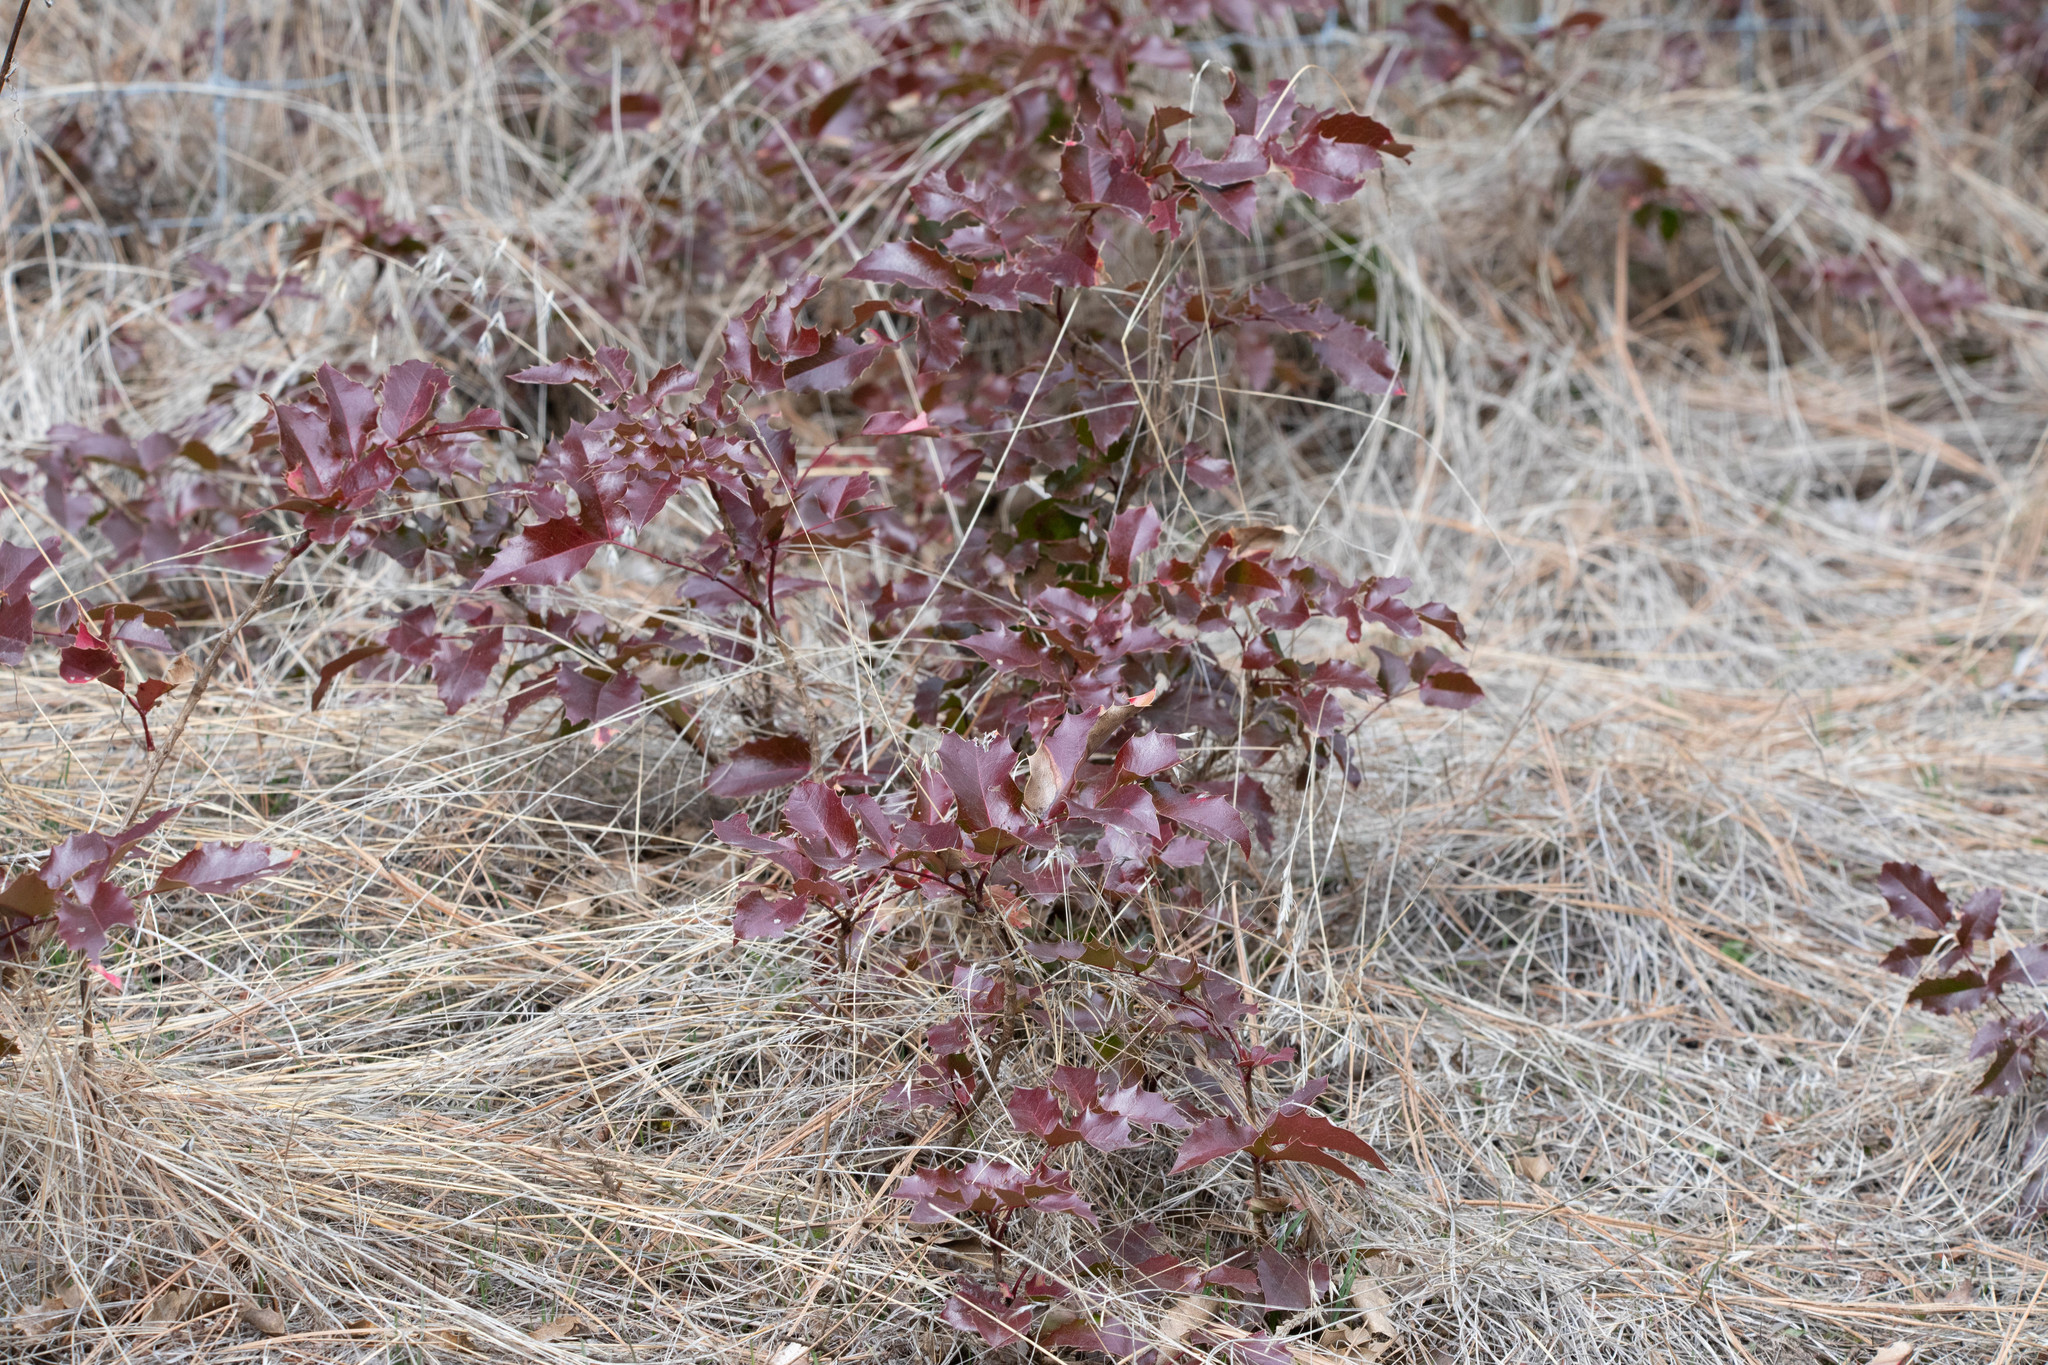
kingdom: Plantae
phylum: Tracheophyta
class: Magnoliopsida
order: Ranunculales
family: Berberidaceae
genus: Mahonia
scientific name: Mahonia aquifolium
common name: Oregon-grape
